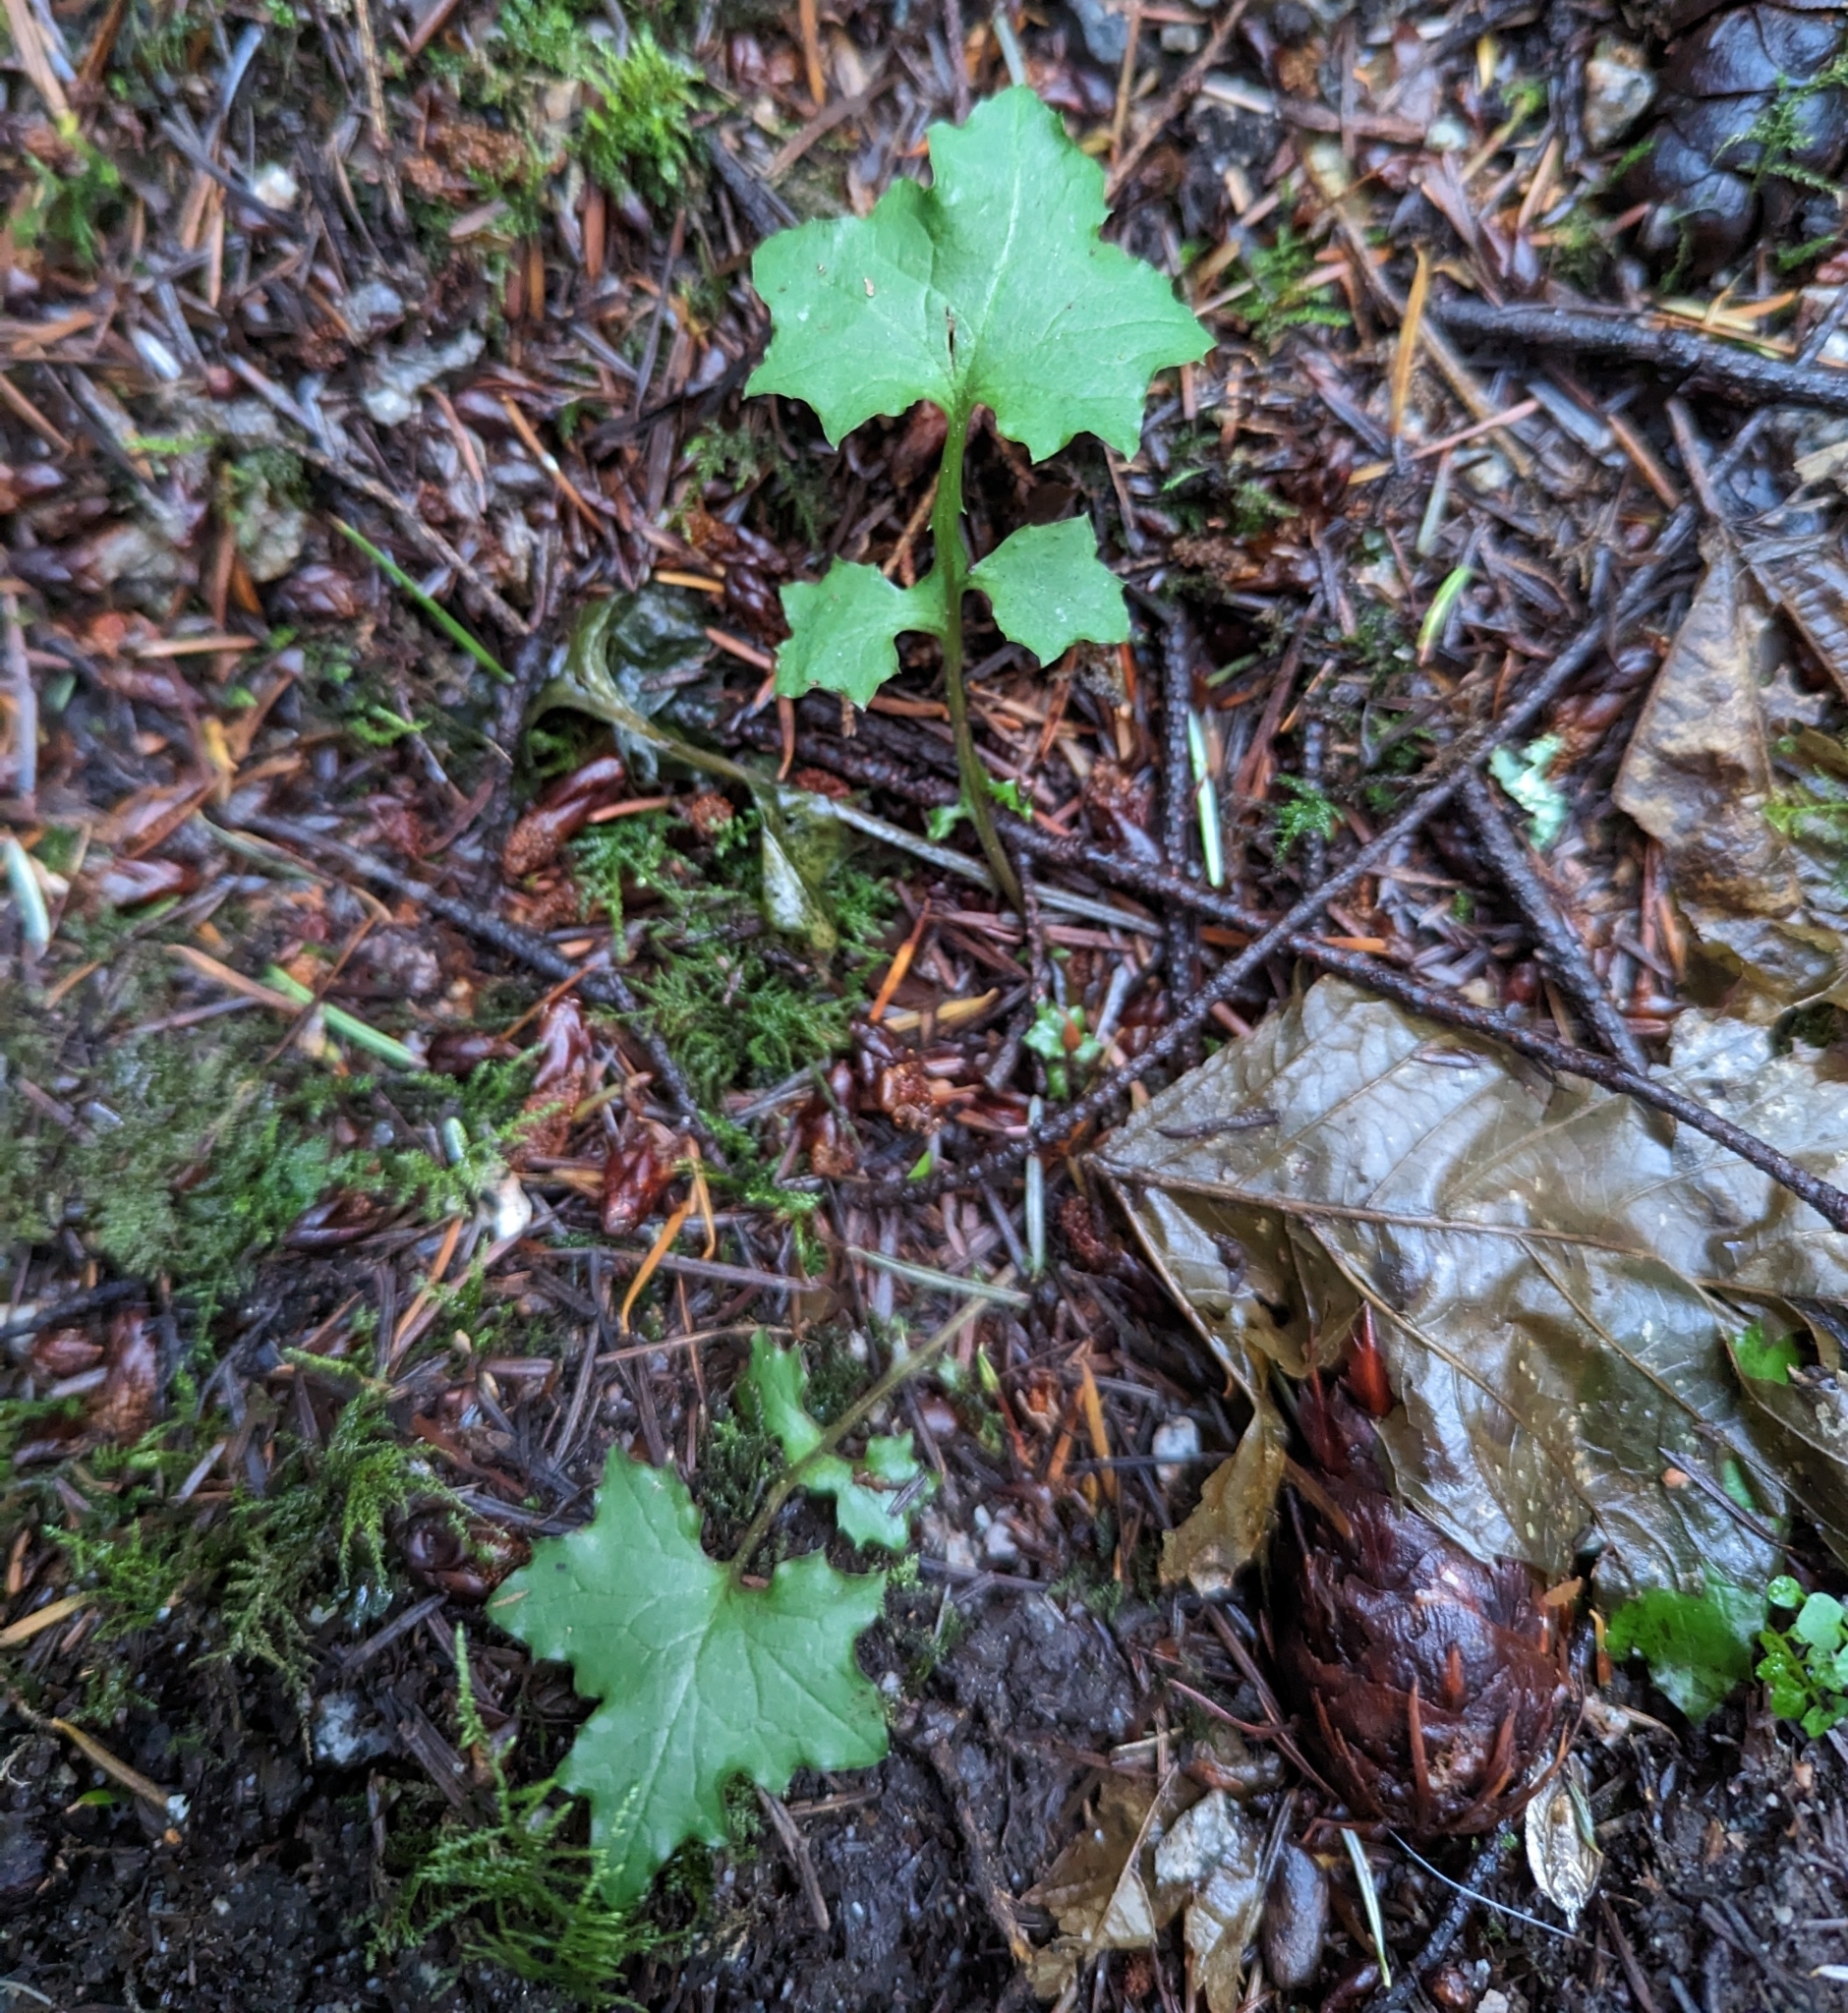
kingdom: Plantae
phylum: Tracheophyta
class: Magnoliopsida
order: Asterales
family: Asteraceae
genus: Mycelis
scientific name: Mycelis muralis
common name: Wall lettuce
